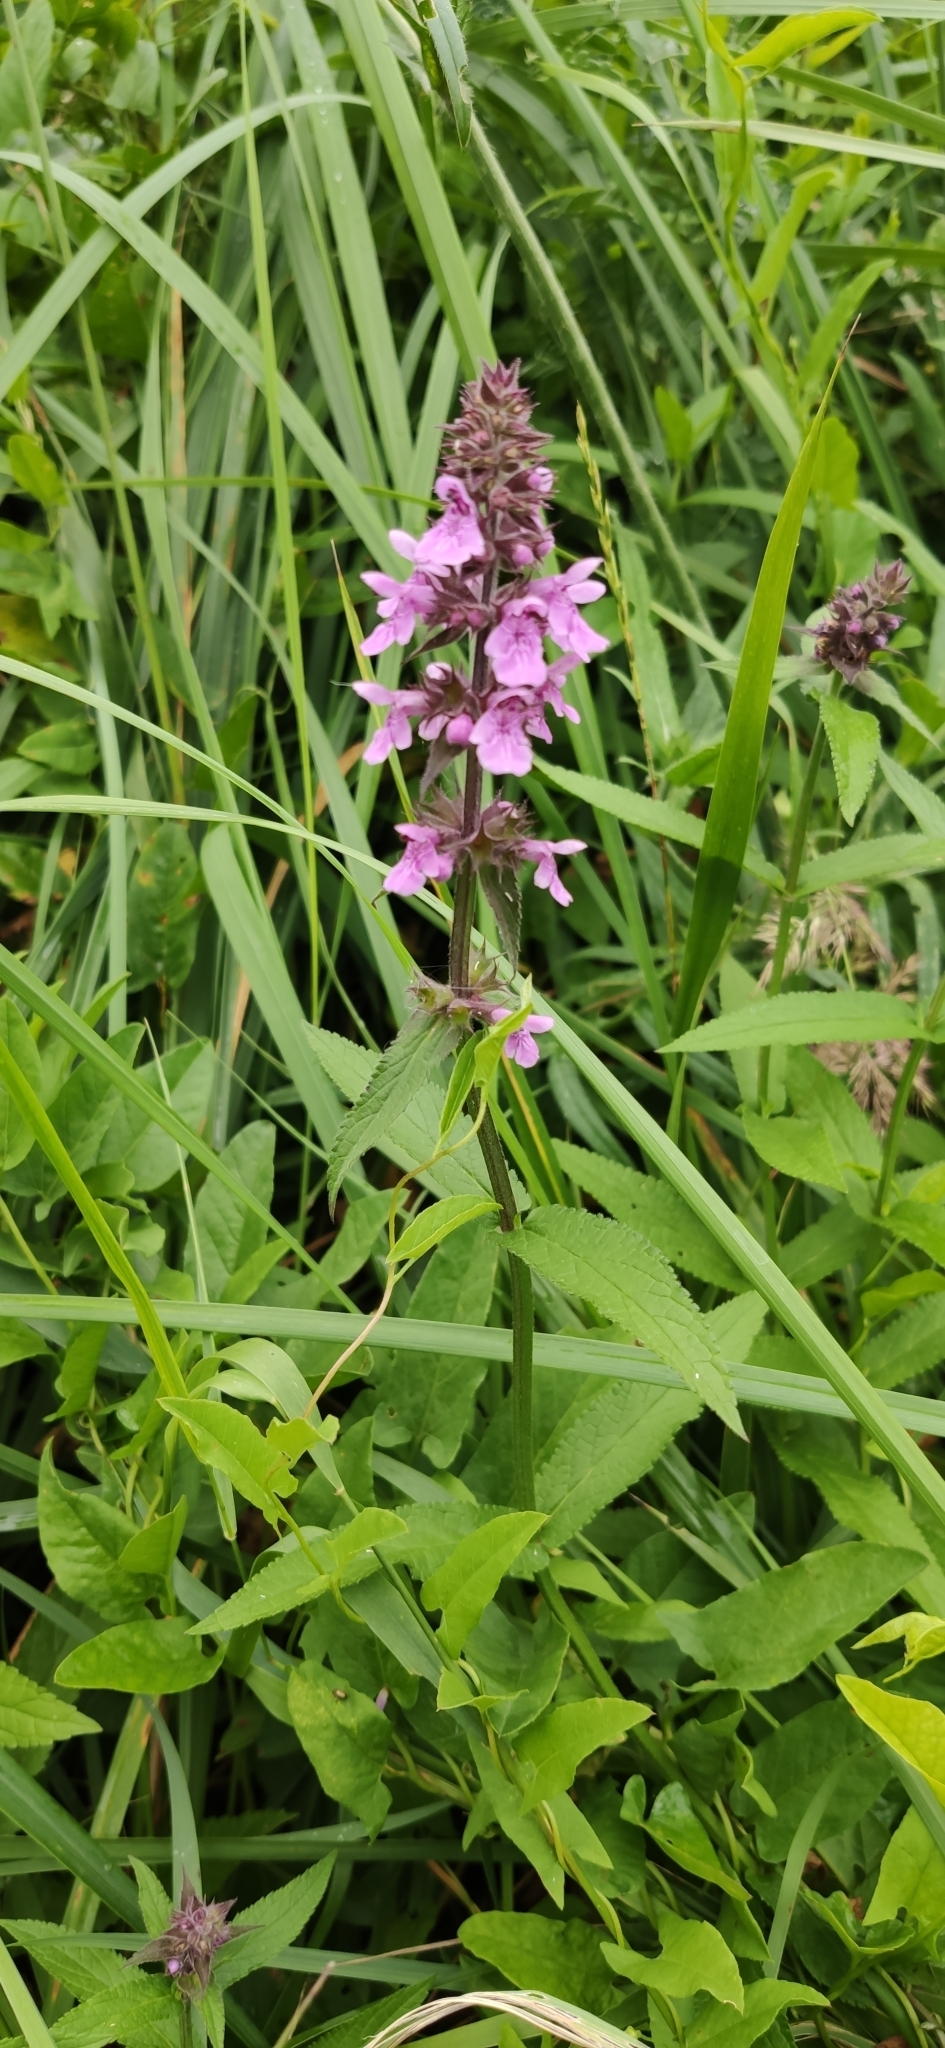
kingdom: Plantae
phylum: Tracheophyta
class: Magnoliopsida
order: Lamiales
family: Lamiaceae
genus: Stachys
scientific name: Stachys palustris
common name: Marsh woundwort
